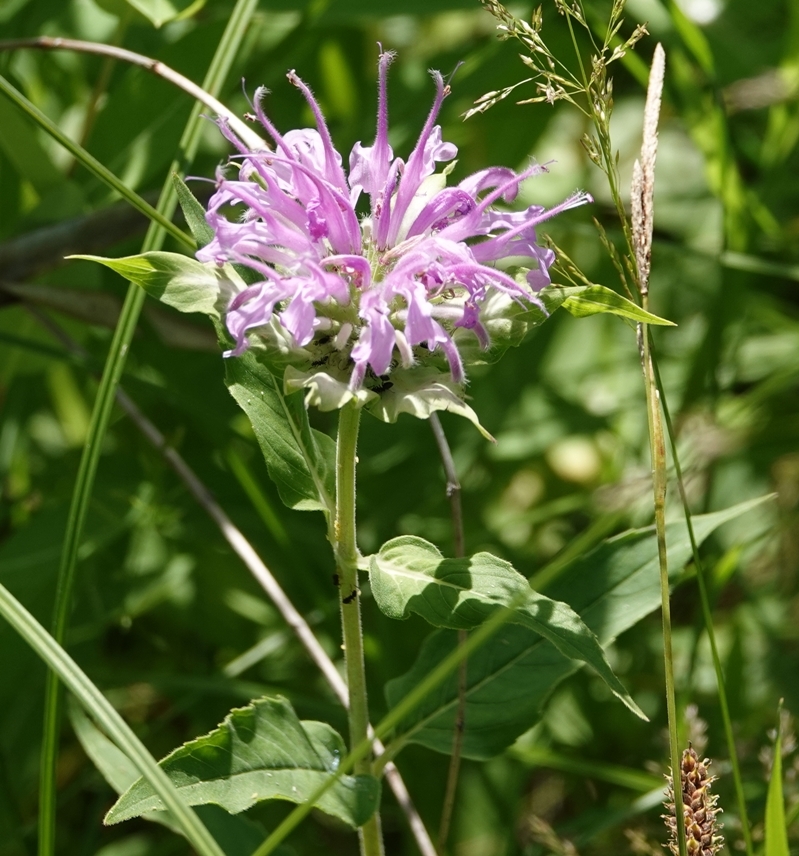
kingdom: Plantae
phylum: Tracheophyta
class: Magnoliopsida
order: Lamiales
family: Lamiaceae
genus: Monarda
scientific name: Monarda fistulosa
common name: Purple beebalm
